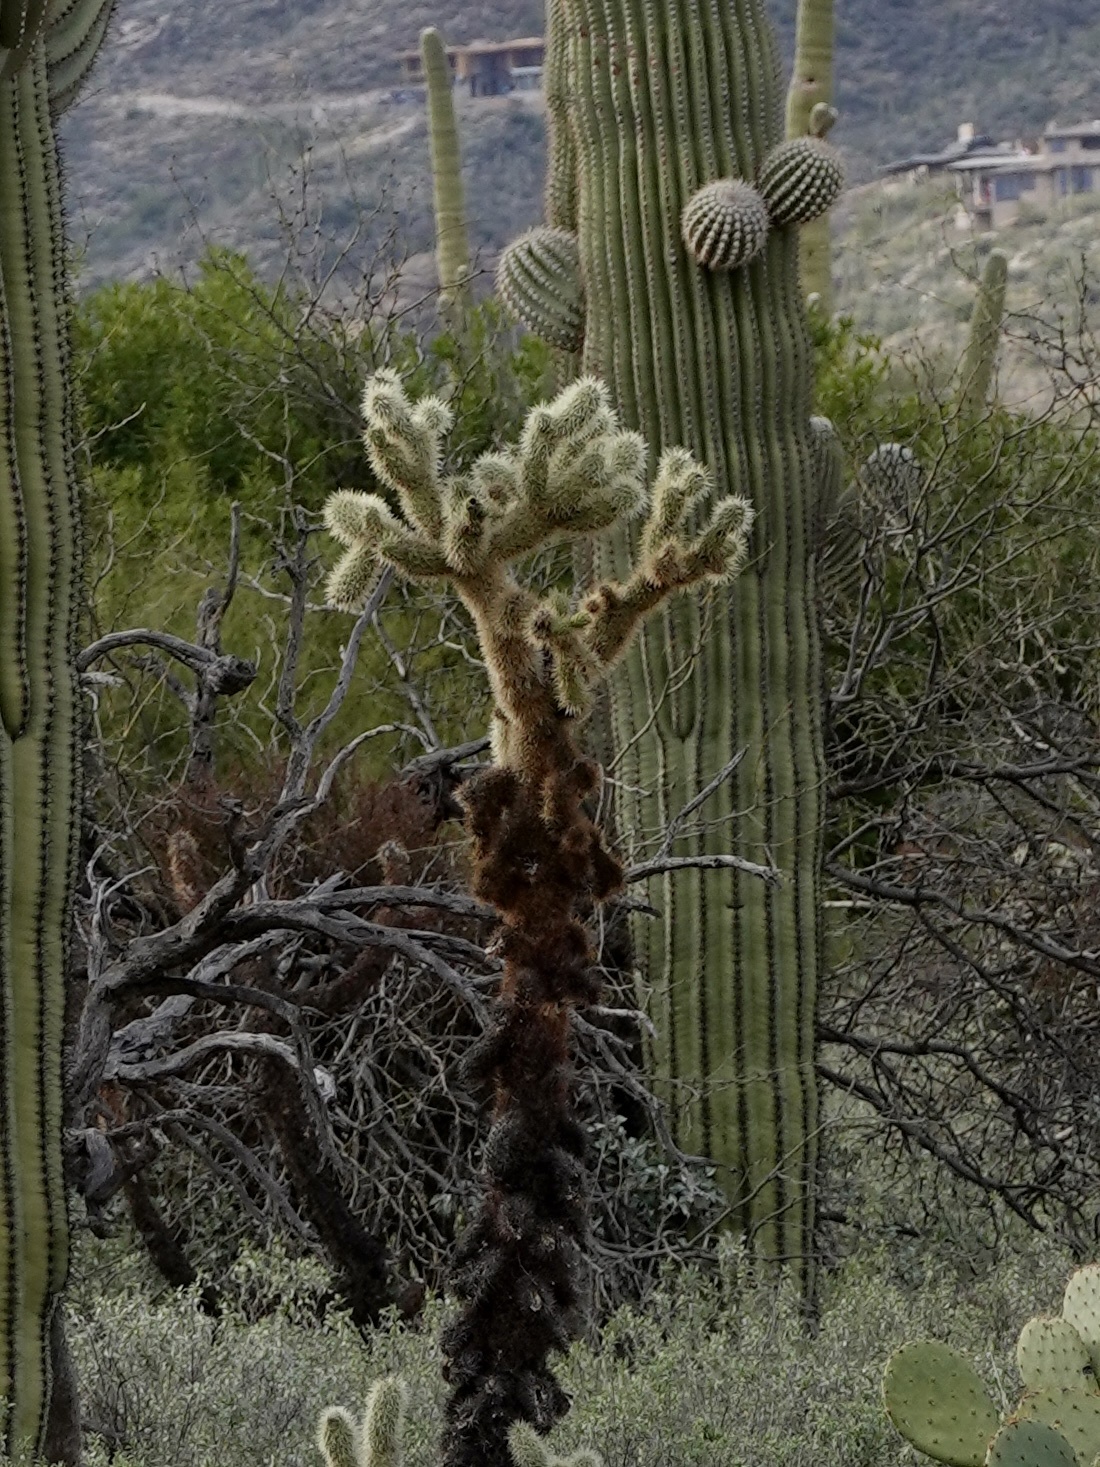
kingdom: Plantae
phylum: Tracheophyta
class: Magnoliopsida
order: Caryophyllales
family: Cactaceae
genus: Cylindropuntia
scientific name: Cylindropuntia fosbergii
